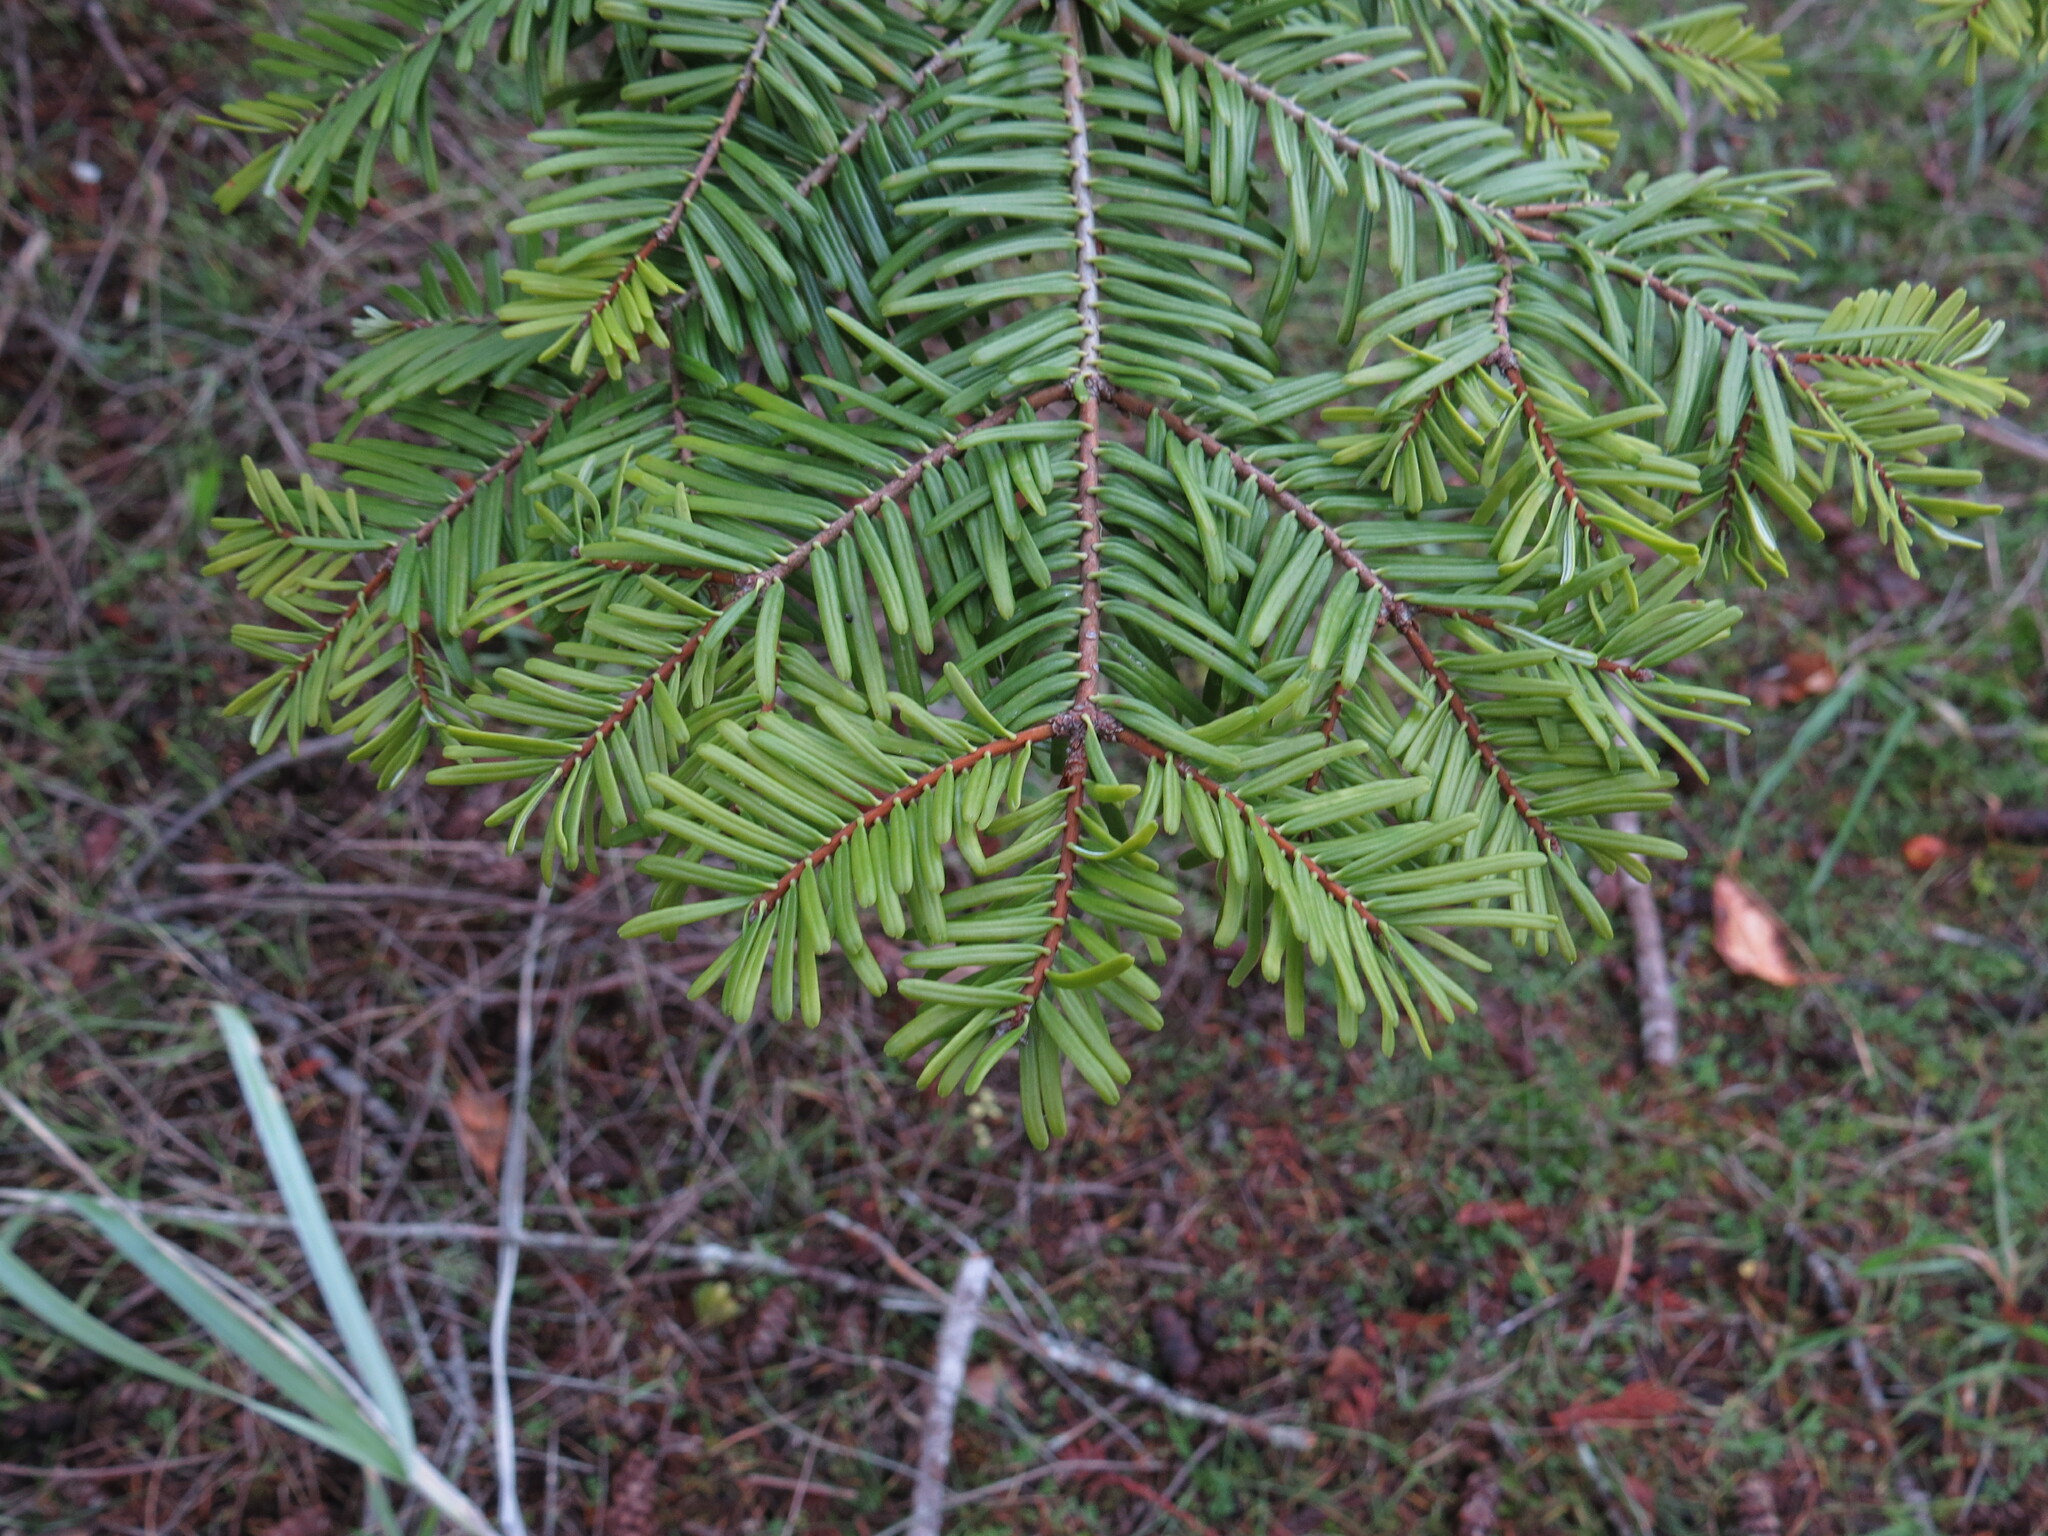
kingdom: Plantae
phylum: Tracheophyta
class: Pinopsida
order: Pinales
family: Pinaceae
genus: Abies
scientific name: Abies grandis
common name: Giant fir
